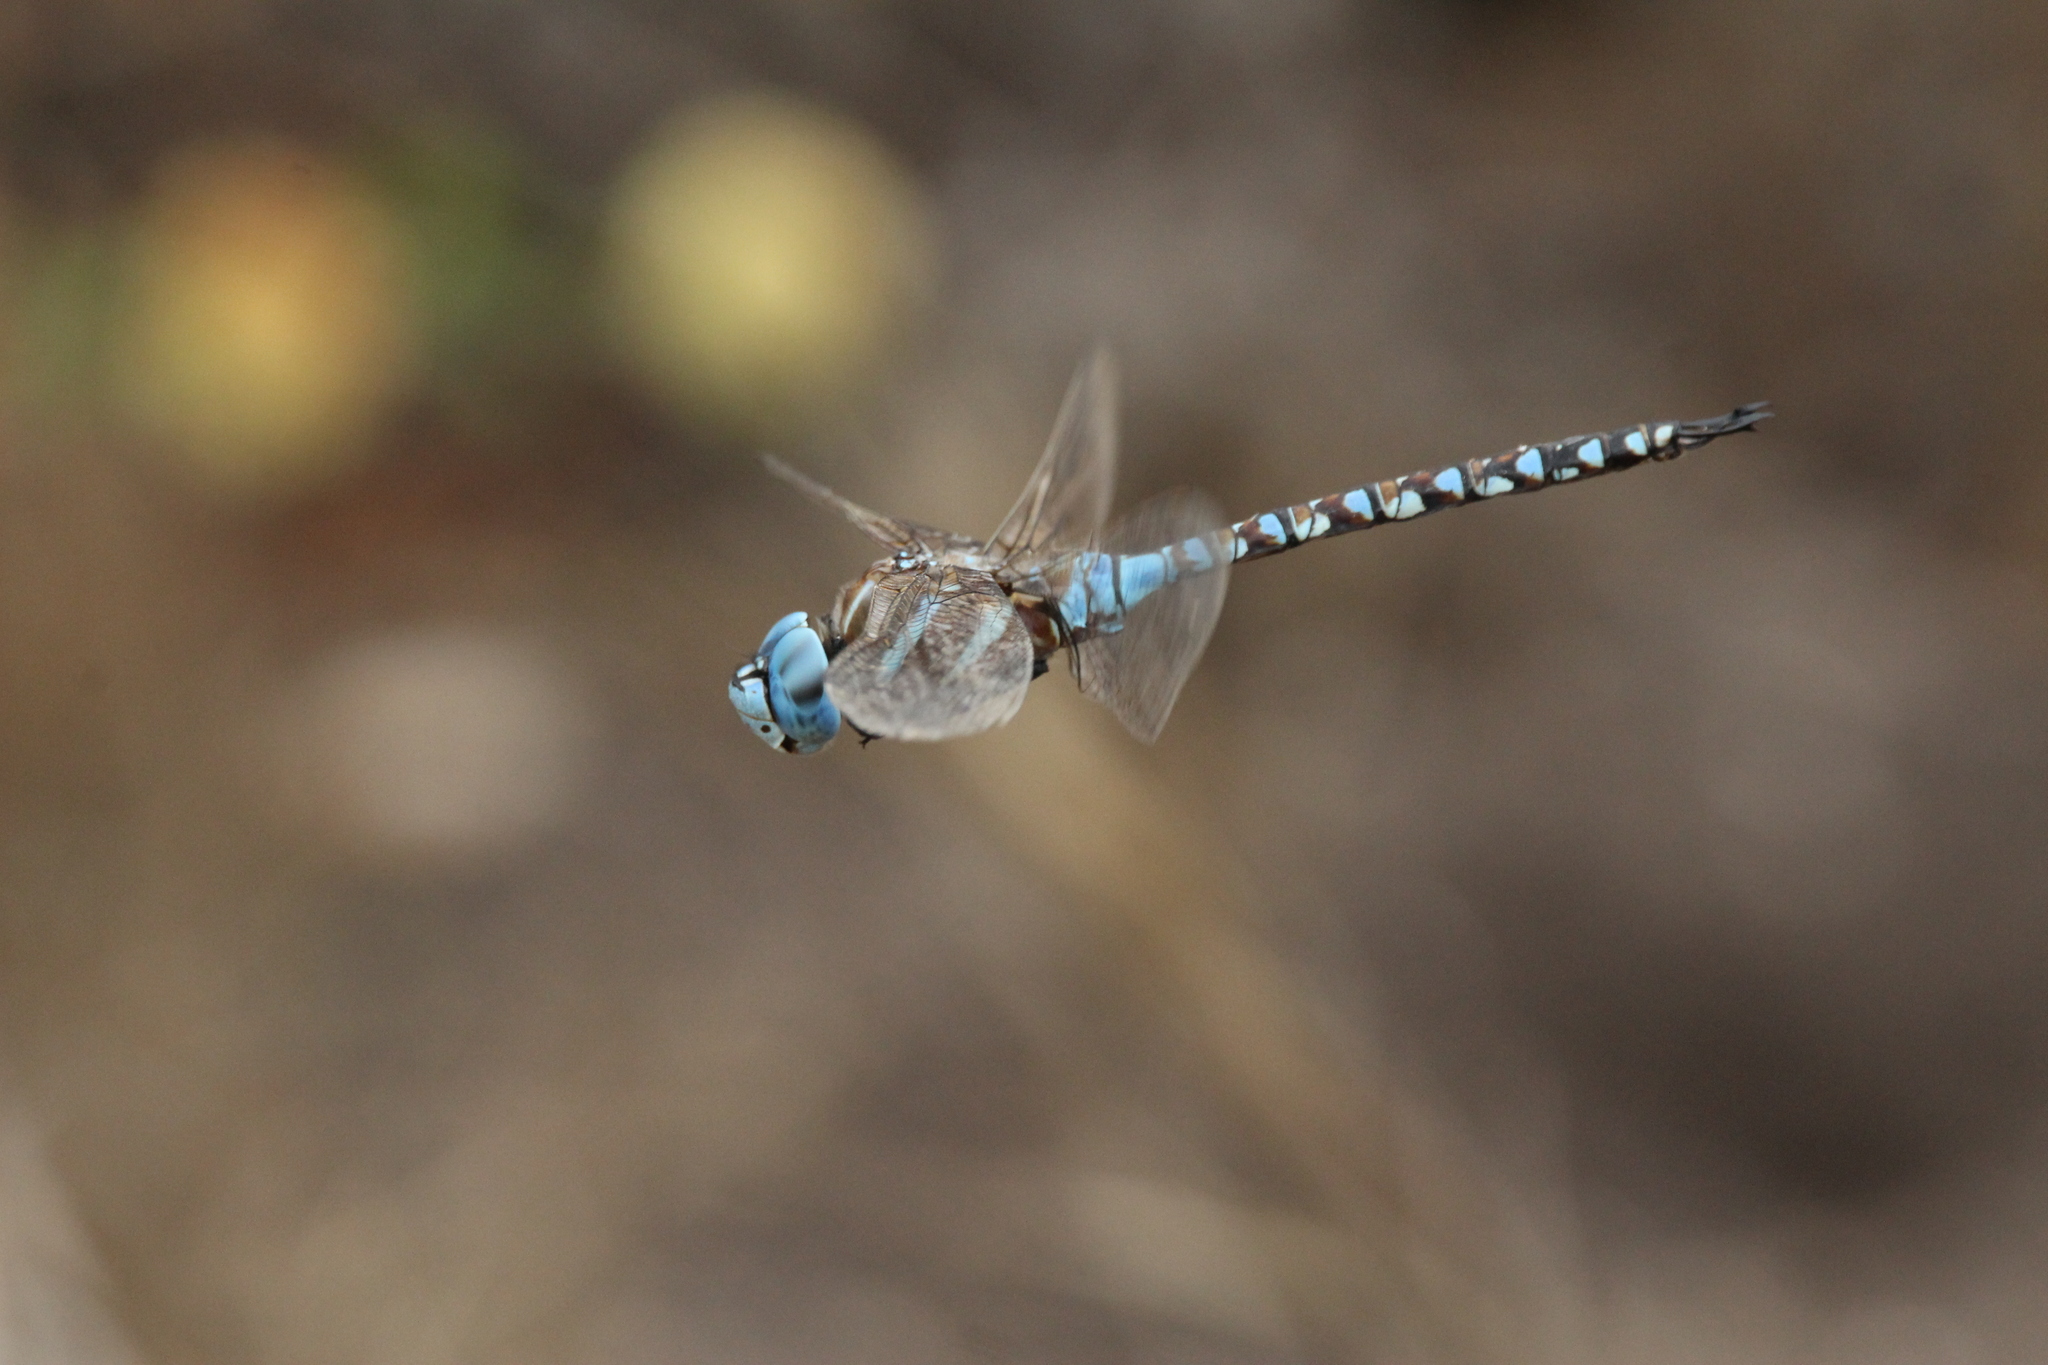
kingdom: Animalia
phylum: Arthropoda
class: Insecta
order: Odonata
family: Aeshnidae
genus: Rhionaeschna
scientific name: Rhionaeschna multicolor
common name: Blue-eyed darner
